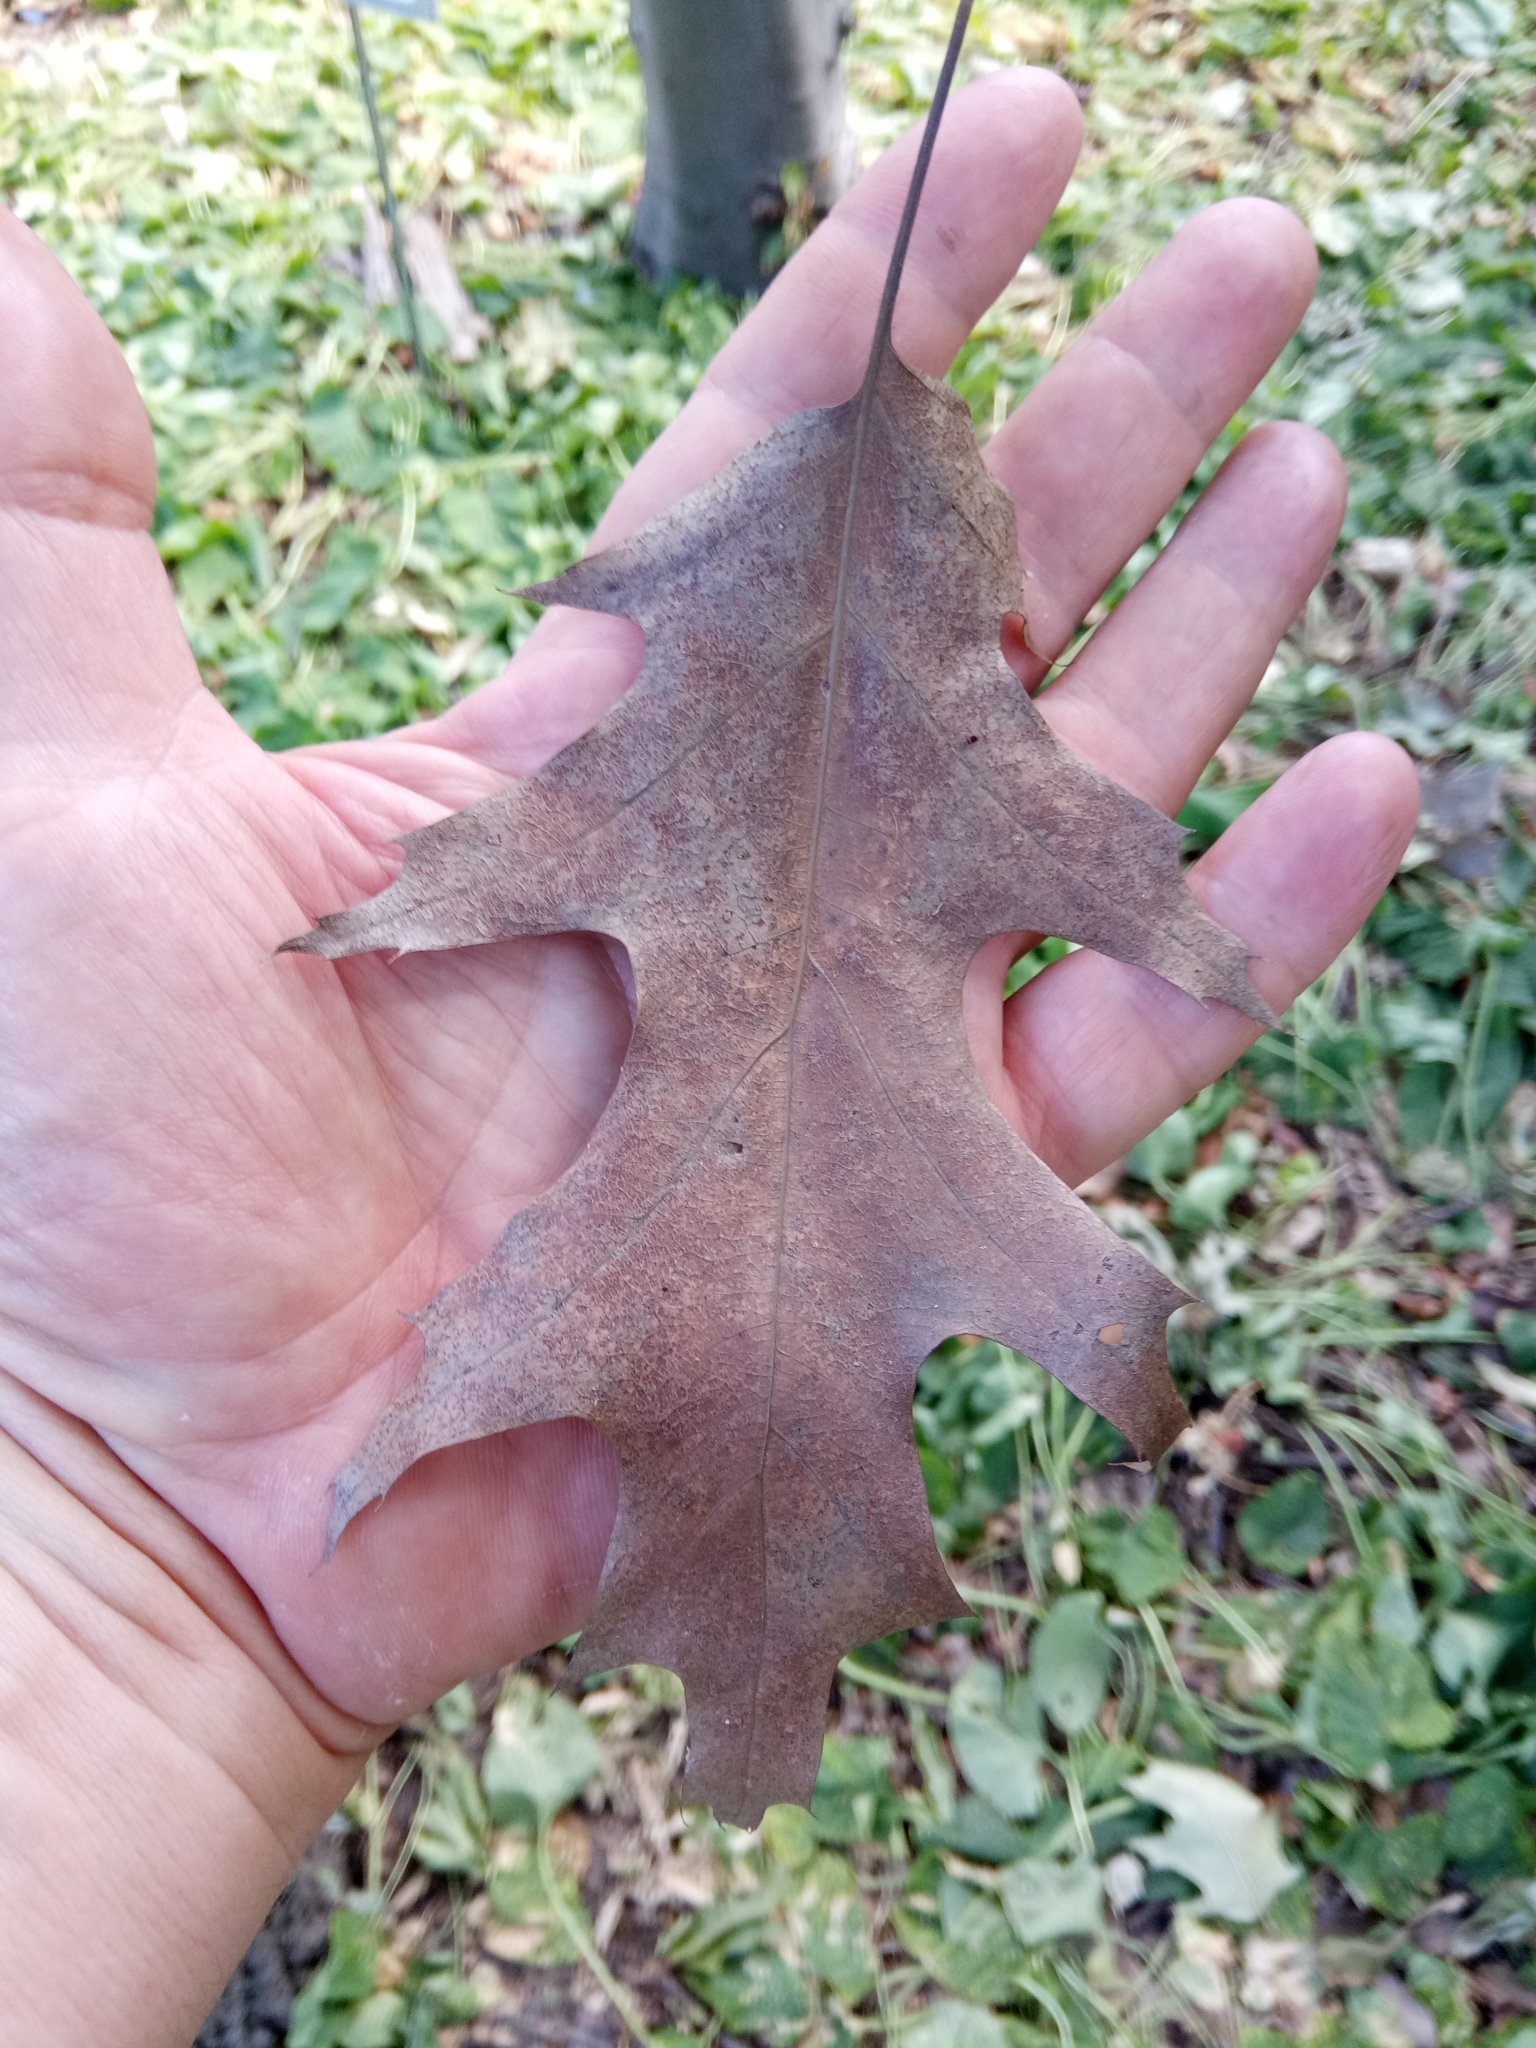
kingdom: Plantae
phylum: Tracheophyta
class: Magnoliopsida
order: Fagales
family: Fagaceae
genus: Quercus
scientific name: Quercus rubra
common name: Red oak
